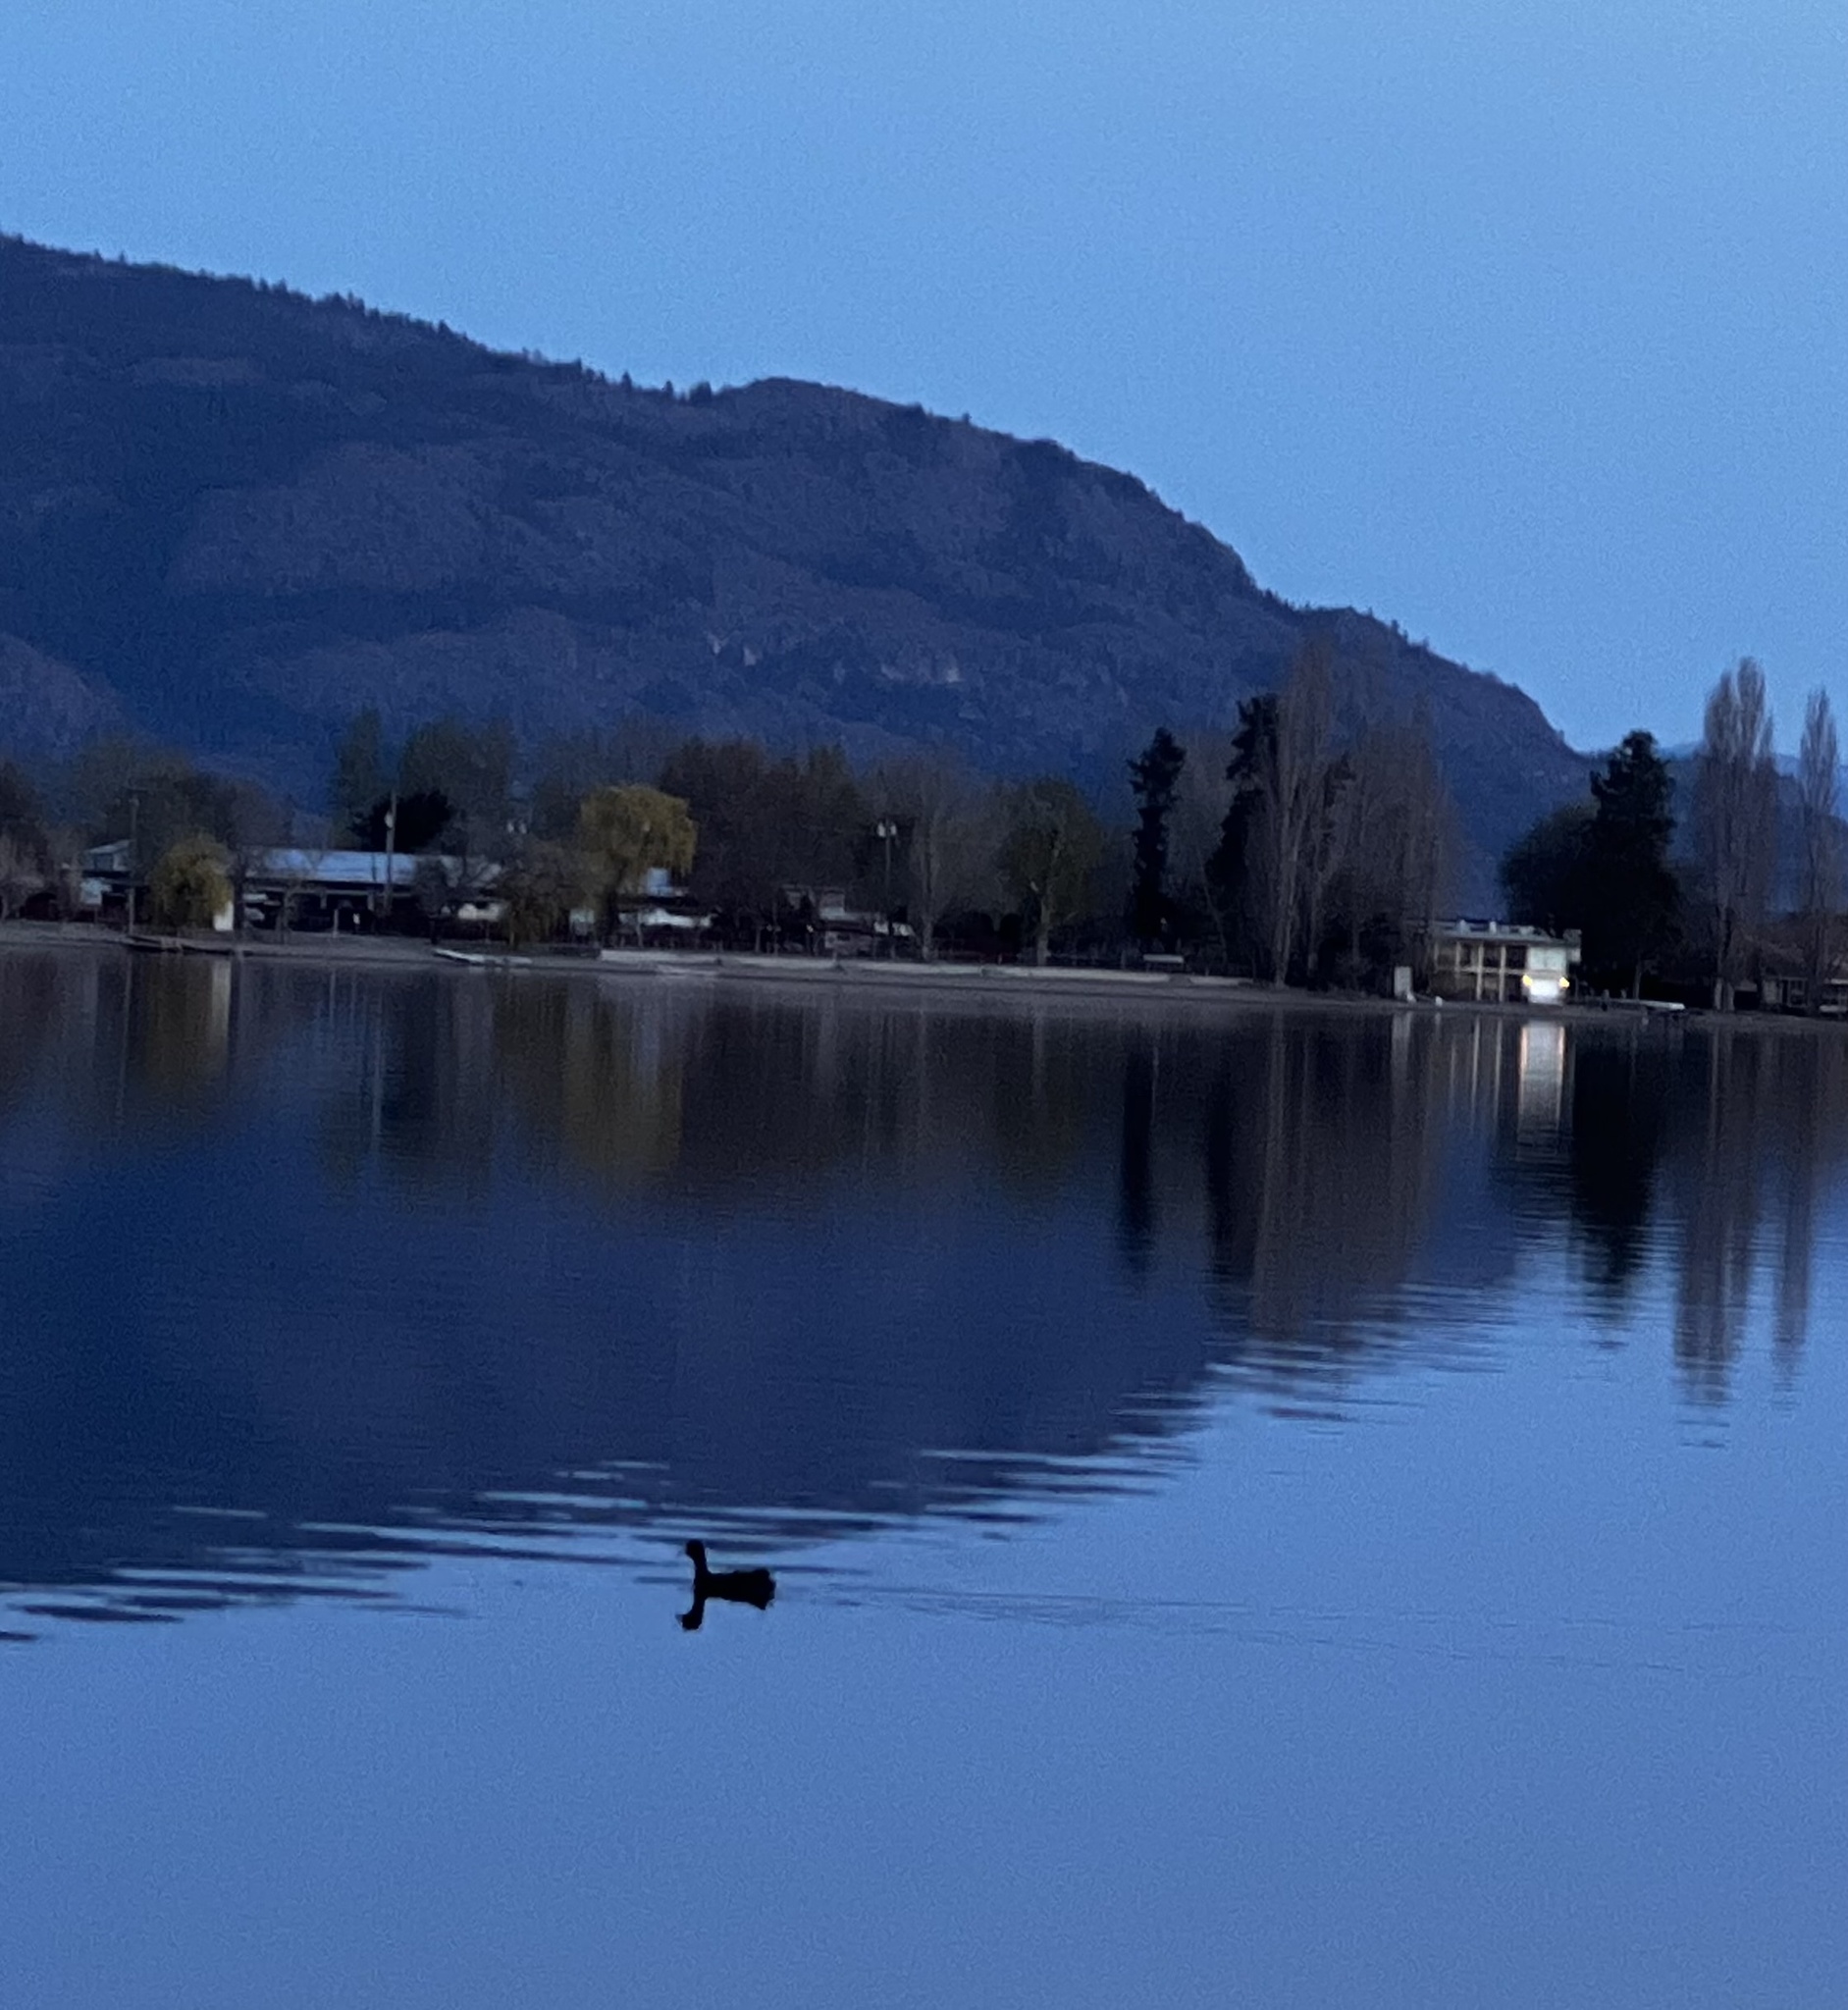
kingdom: Animalia
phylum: Chordata
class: Aves
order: Gruiformes
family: Rallidae
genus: Fulica
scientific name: Fulica americana
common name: American coot
